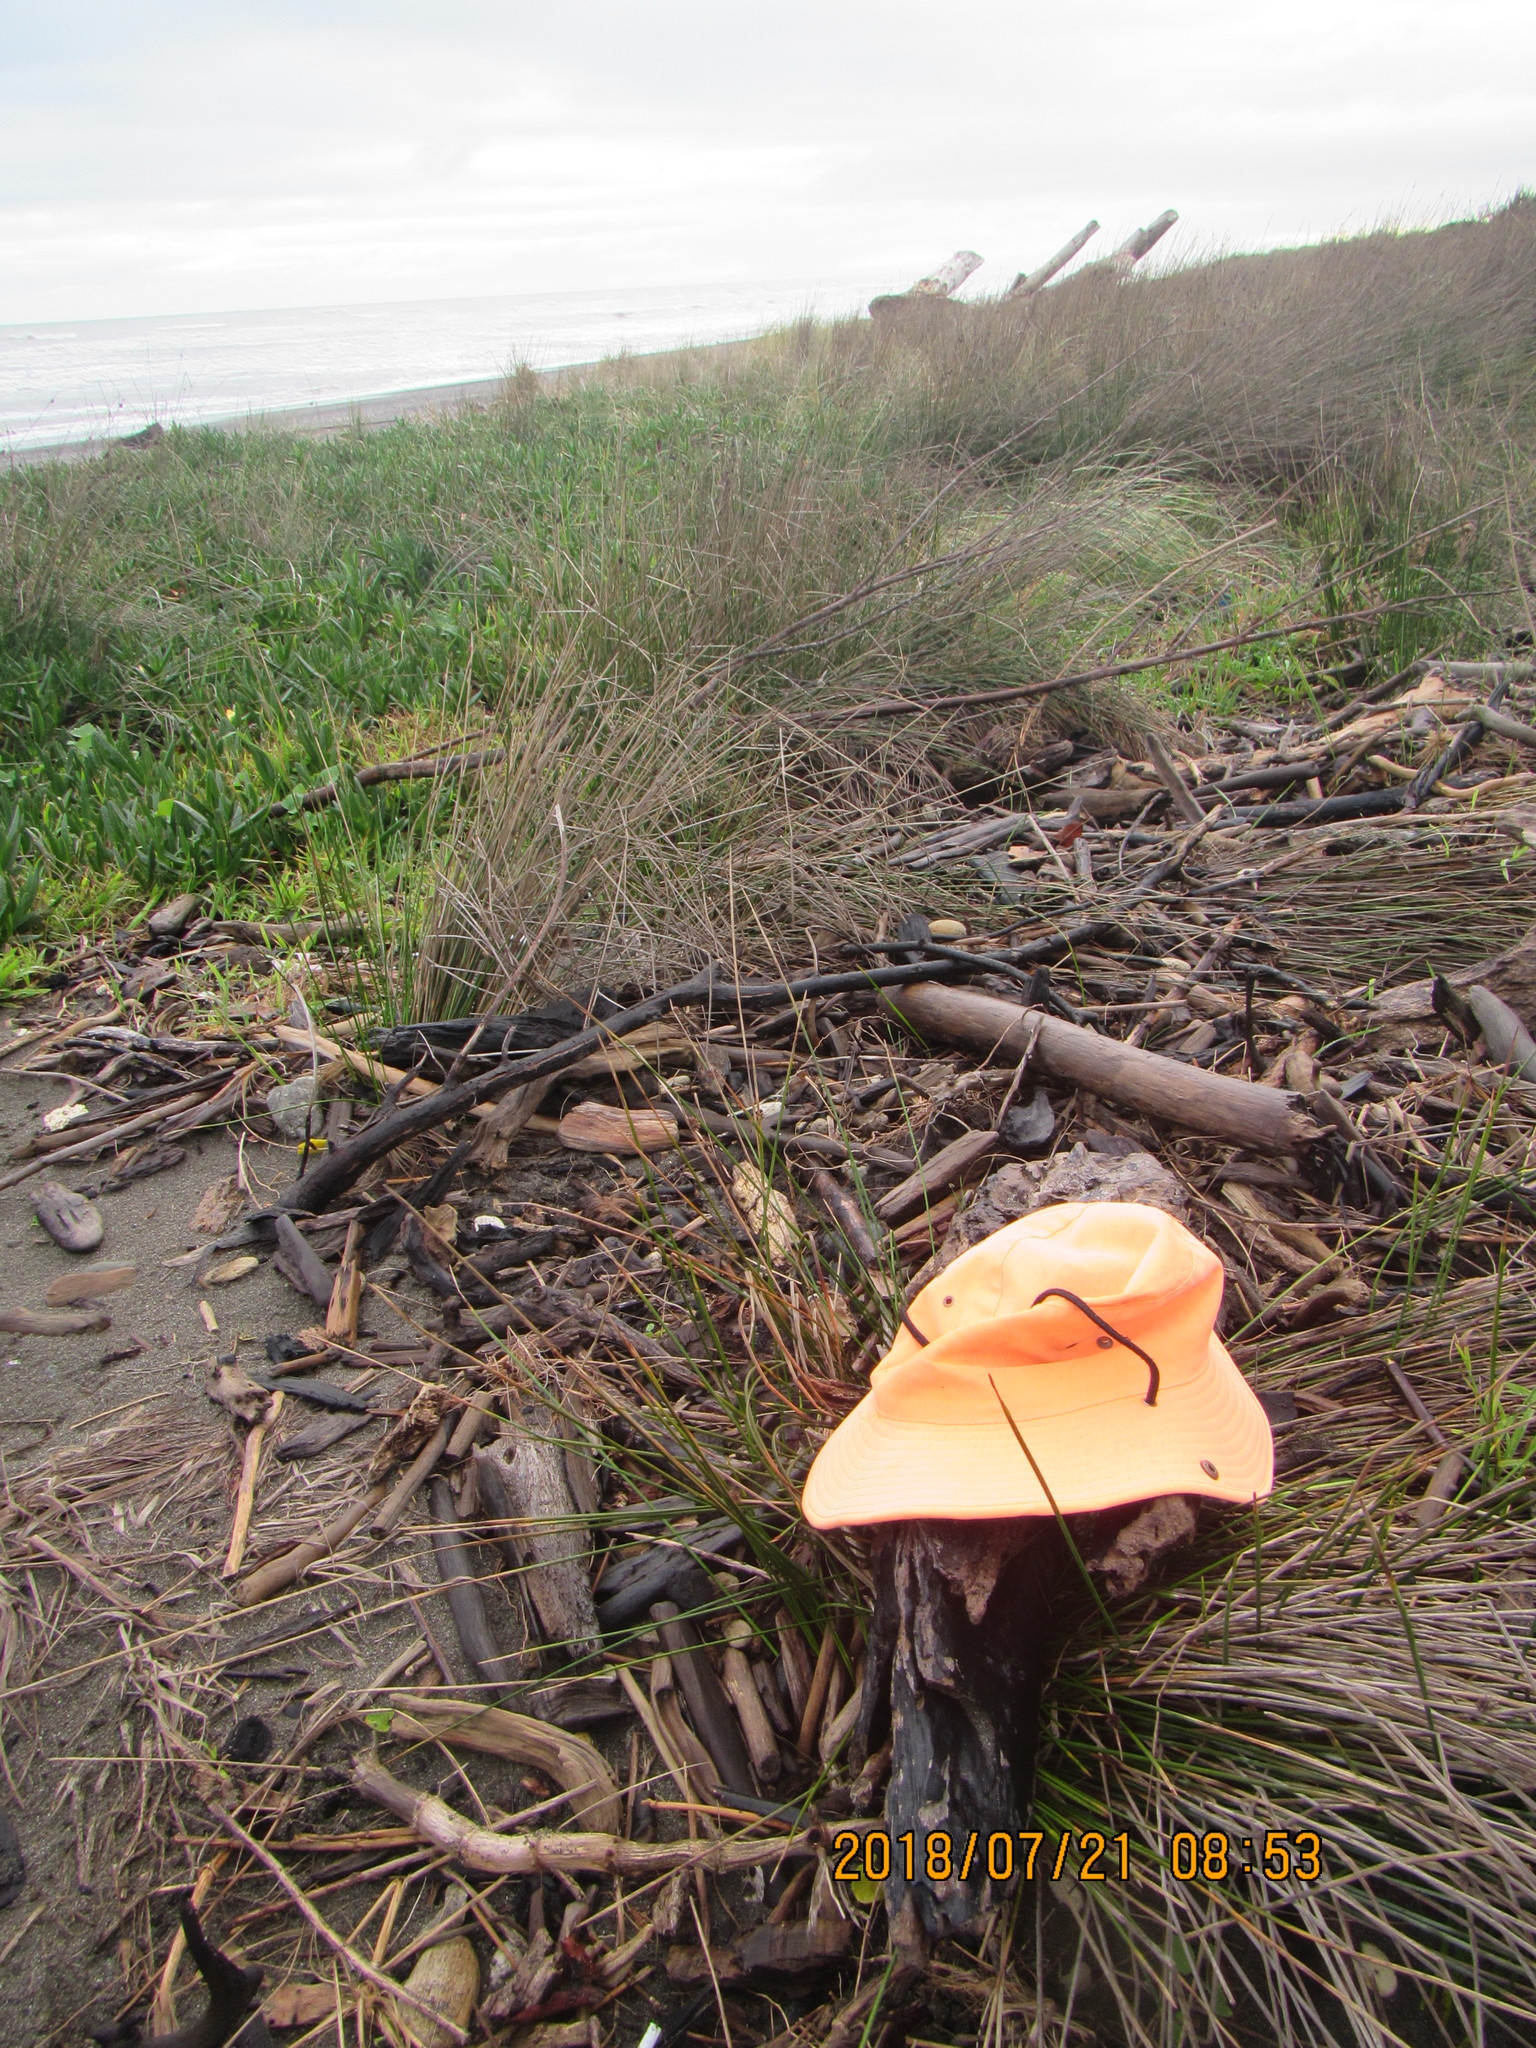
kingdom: Animalia
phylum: Arthropoda
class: Insecta
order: Dermaptera
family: Anisolabididae
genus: Anisolabis
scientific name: Anisolabis littorea
